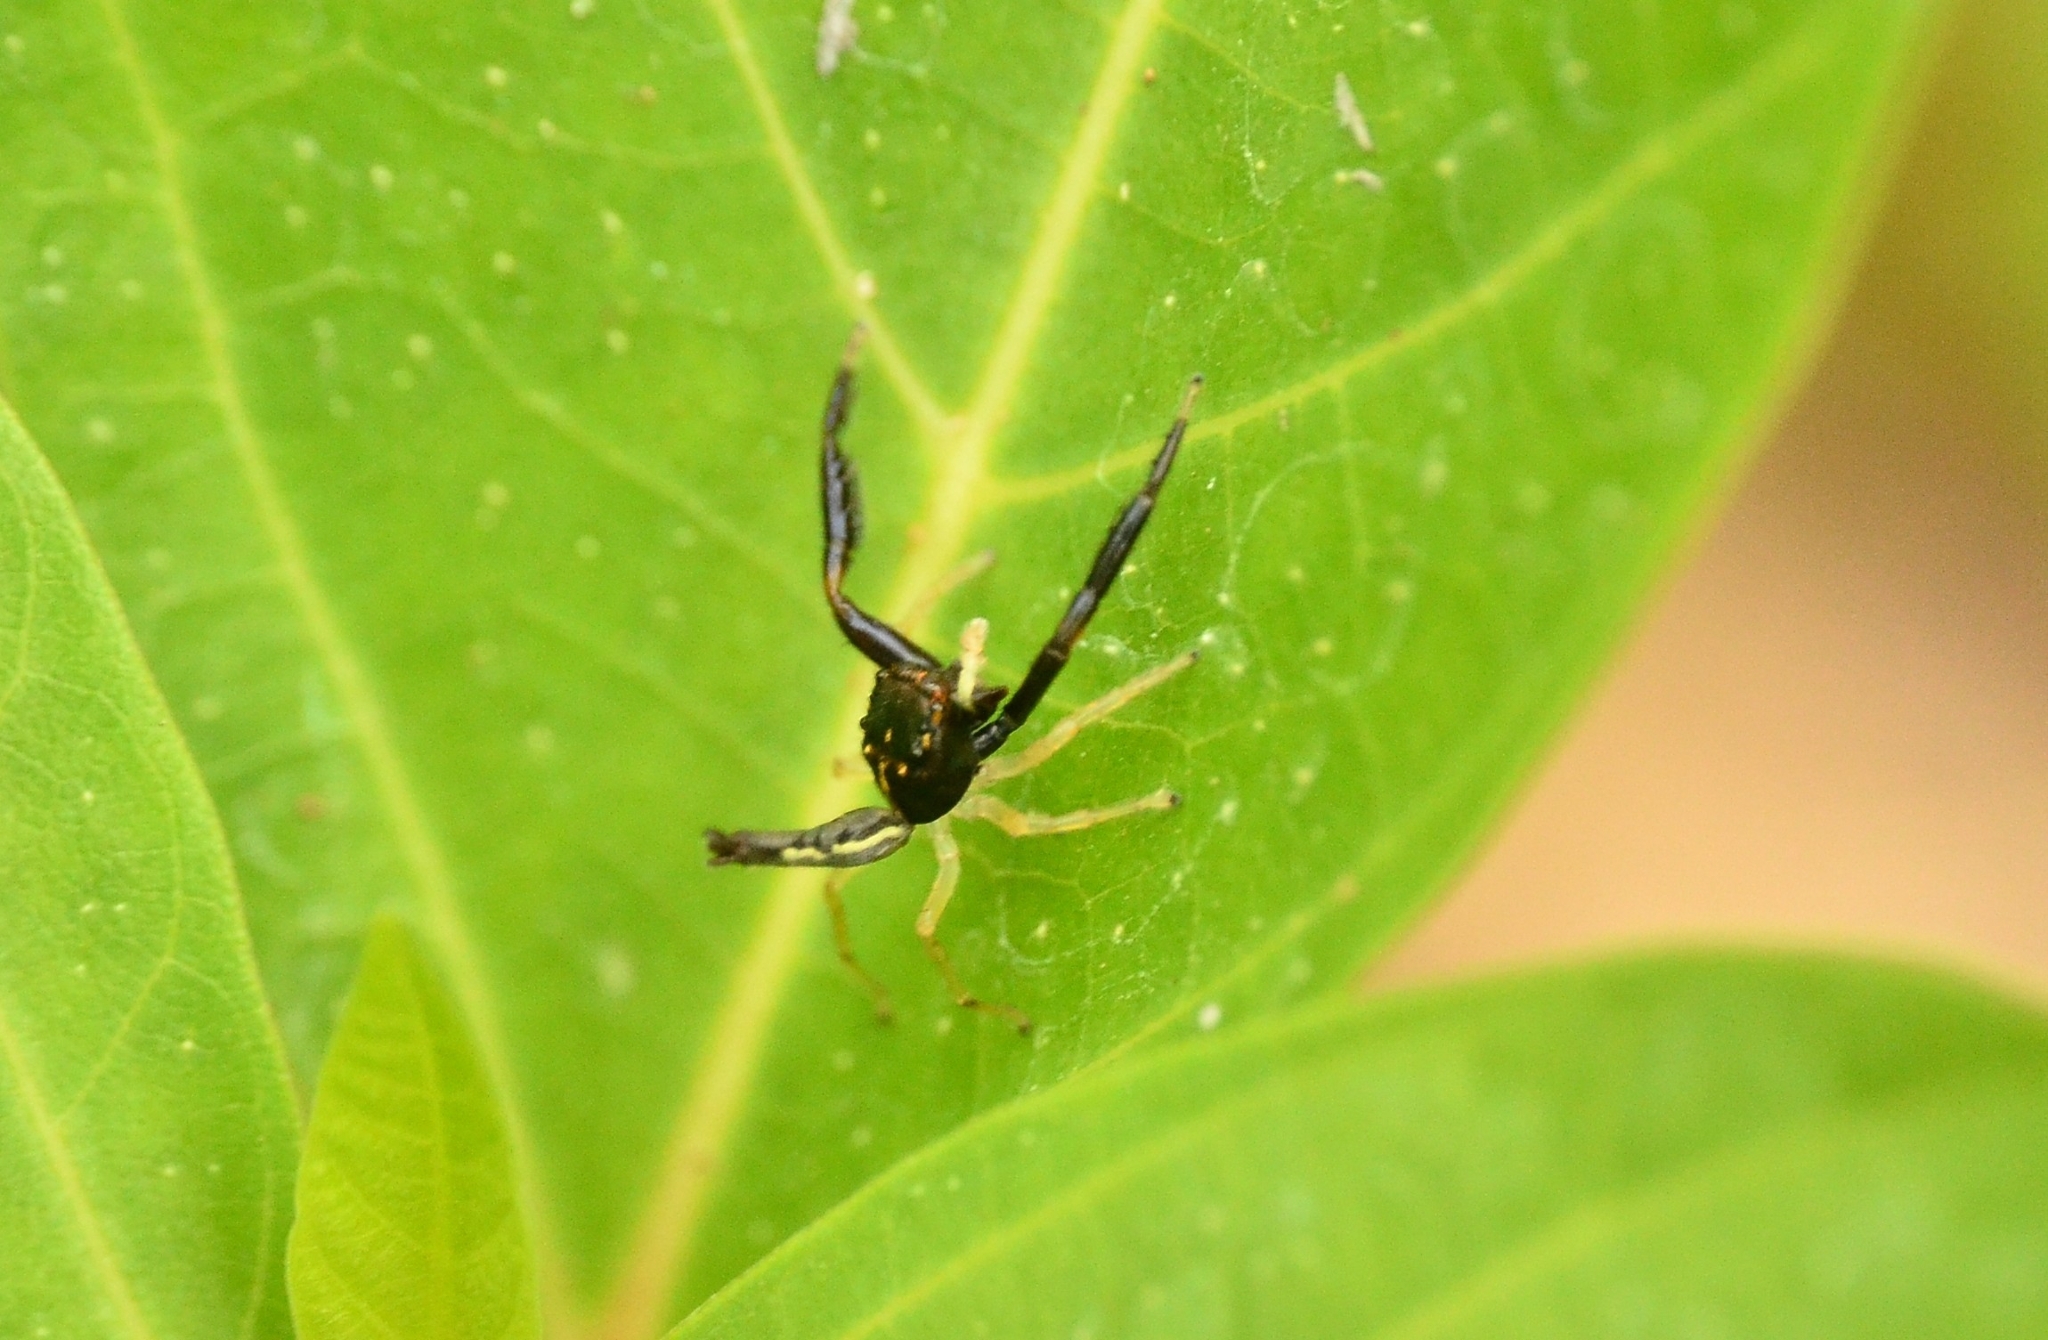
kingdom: Animalia
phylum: Arthropoda
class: Arachnida
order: Araneae
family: Salticidae
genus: Indopadilla
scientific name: Indopadilla insularis
